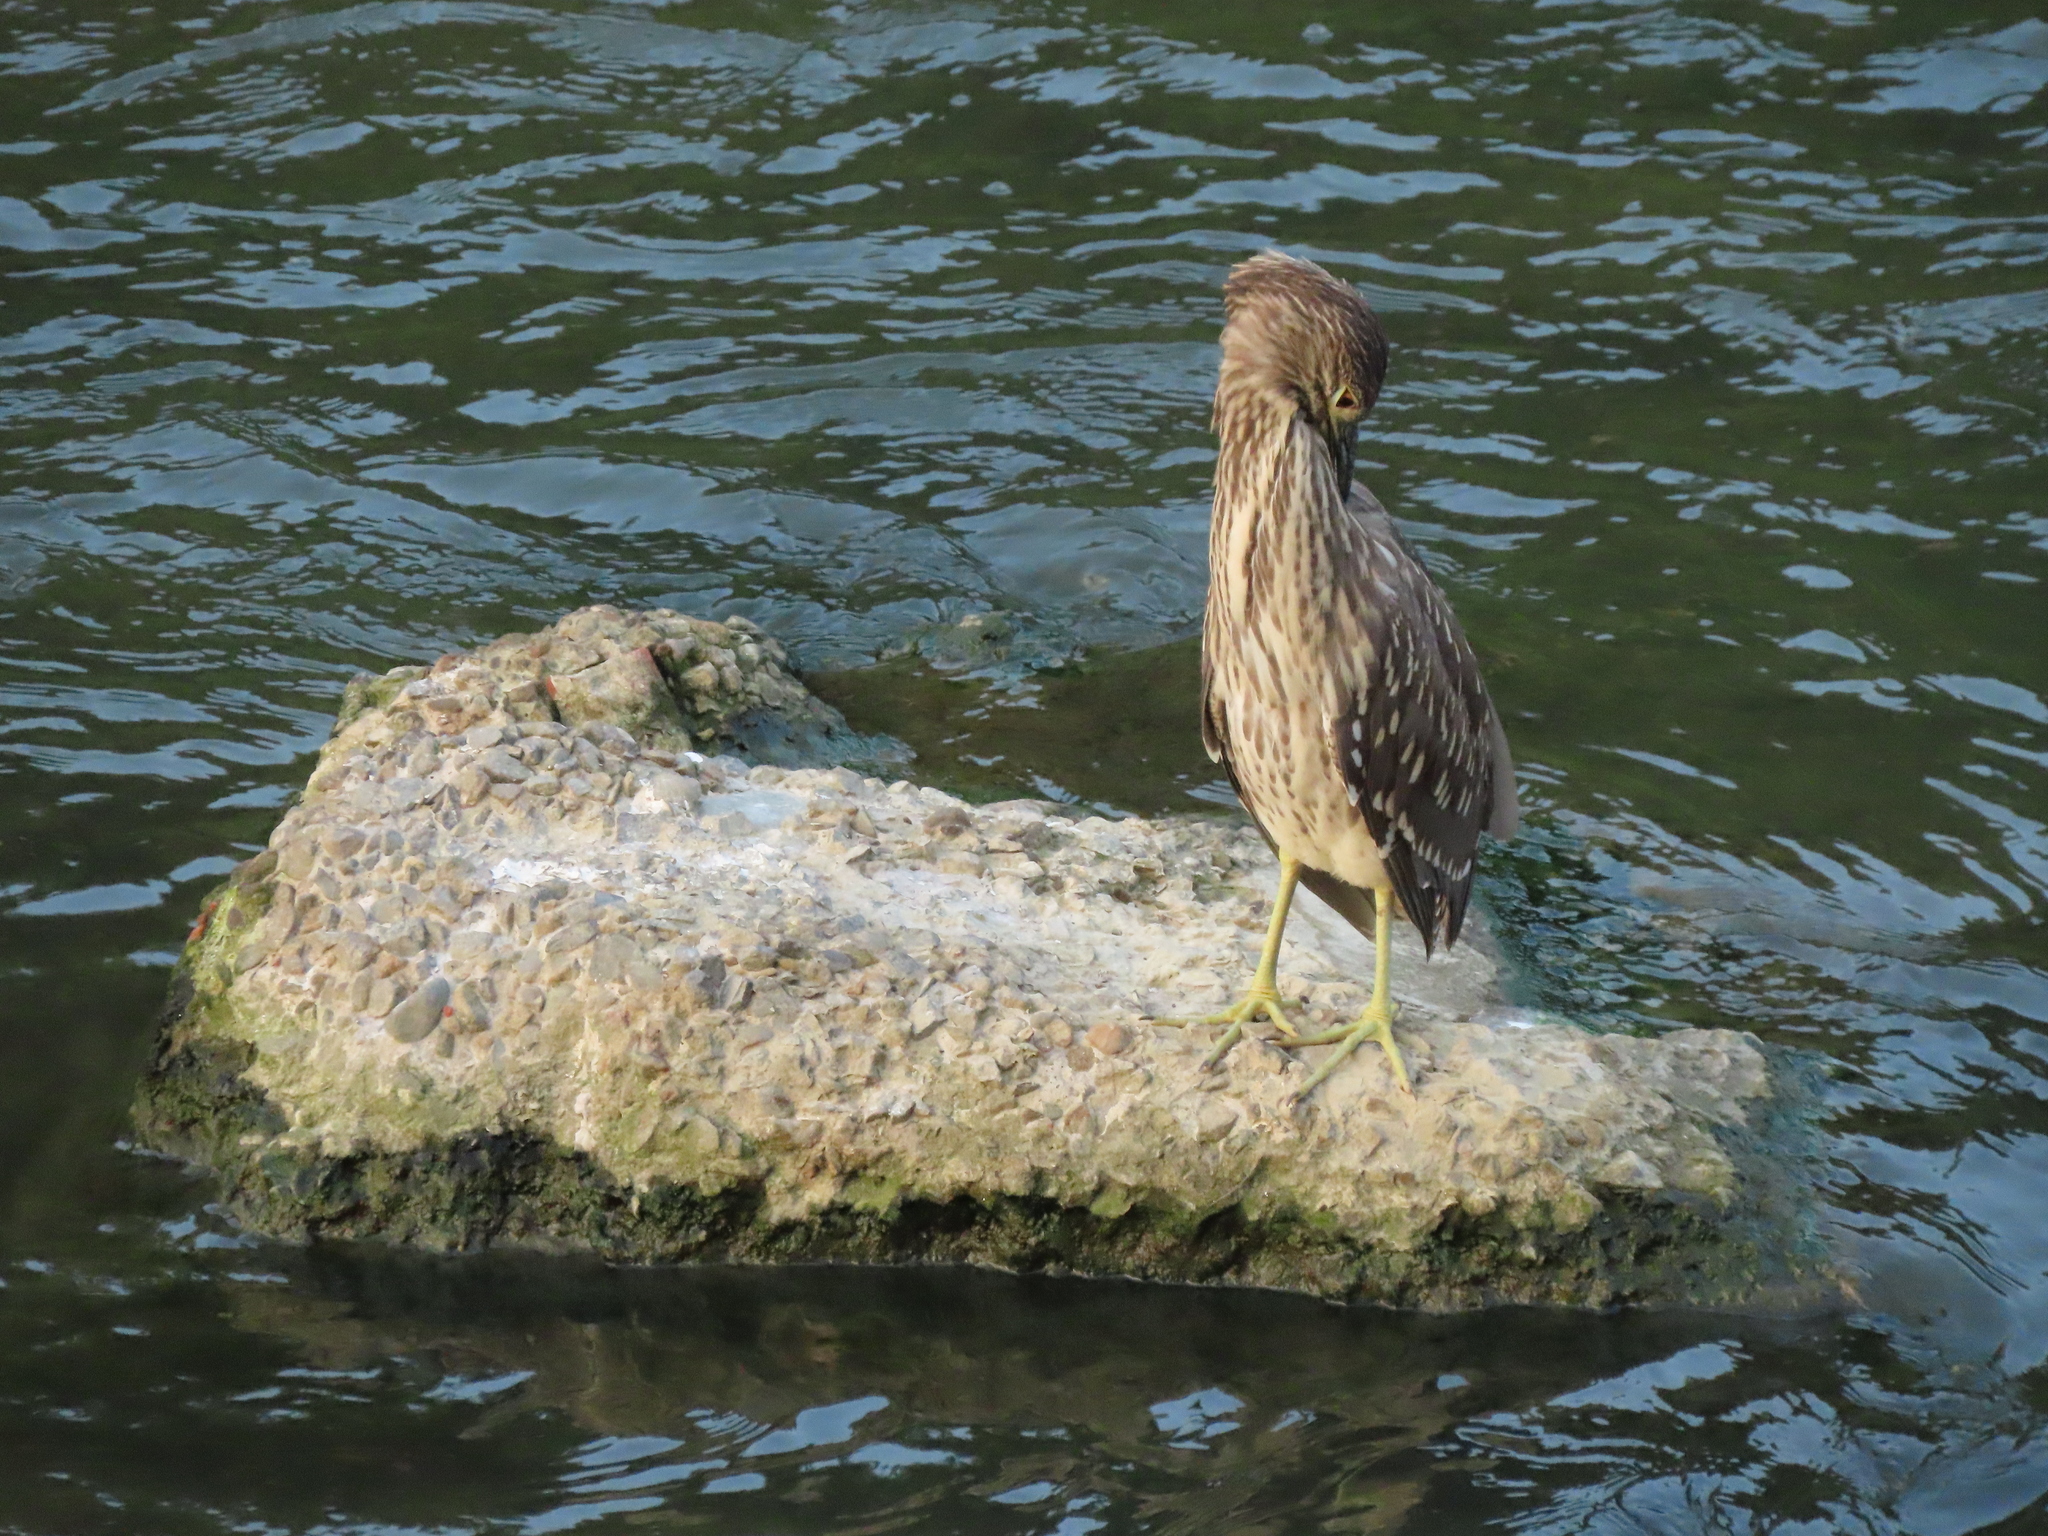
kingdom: Animalia
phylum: Chordata
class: Aves
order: Pelecaniformes
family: Ardeidae
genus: Nycticorax
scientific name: Nycticorax nycticorax
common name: Black-crowned night heron
